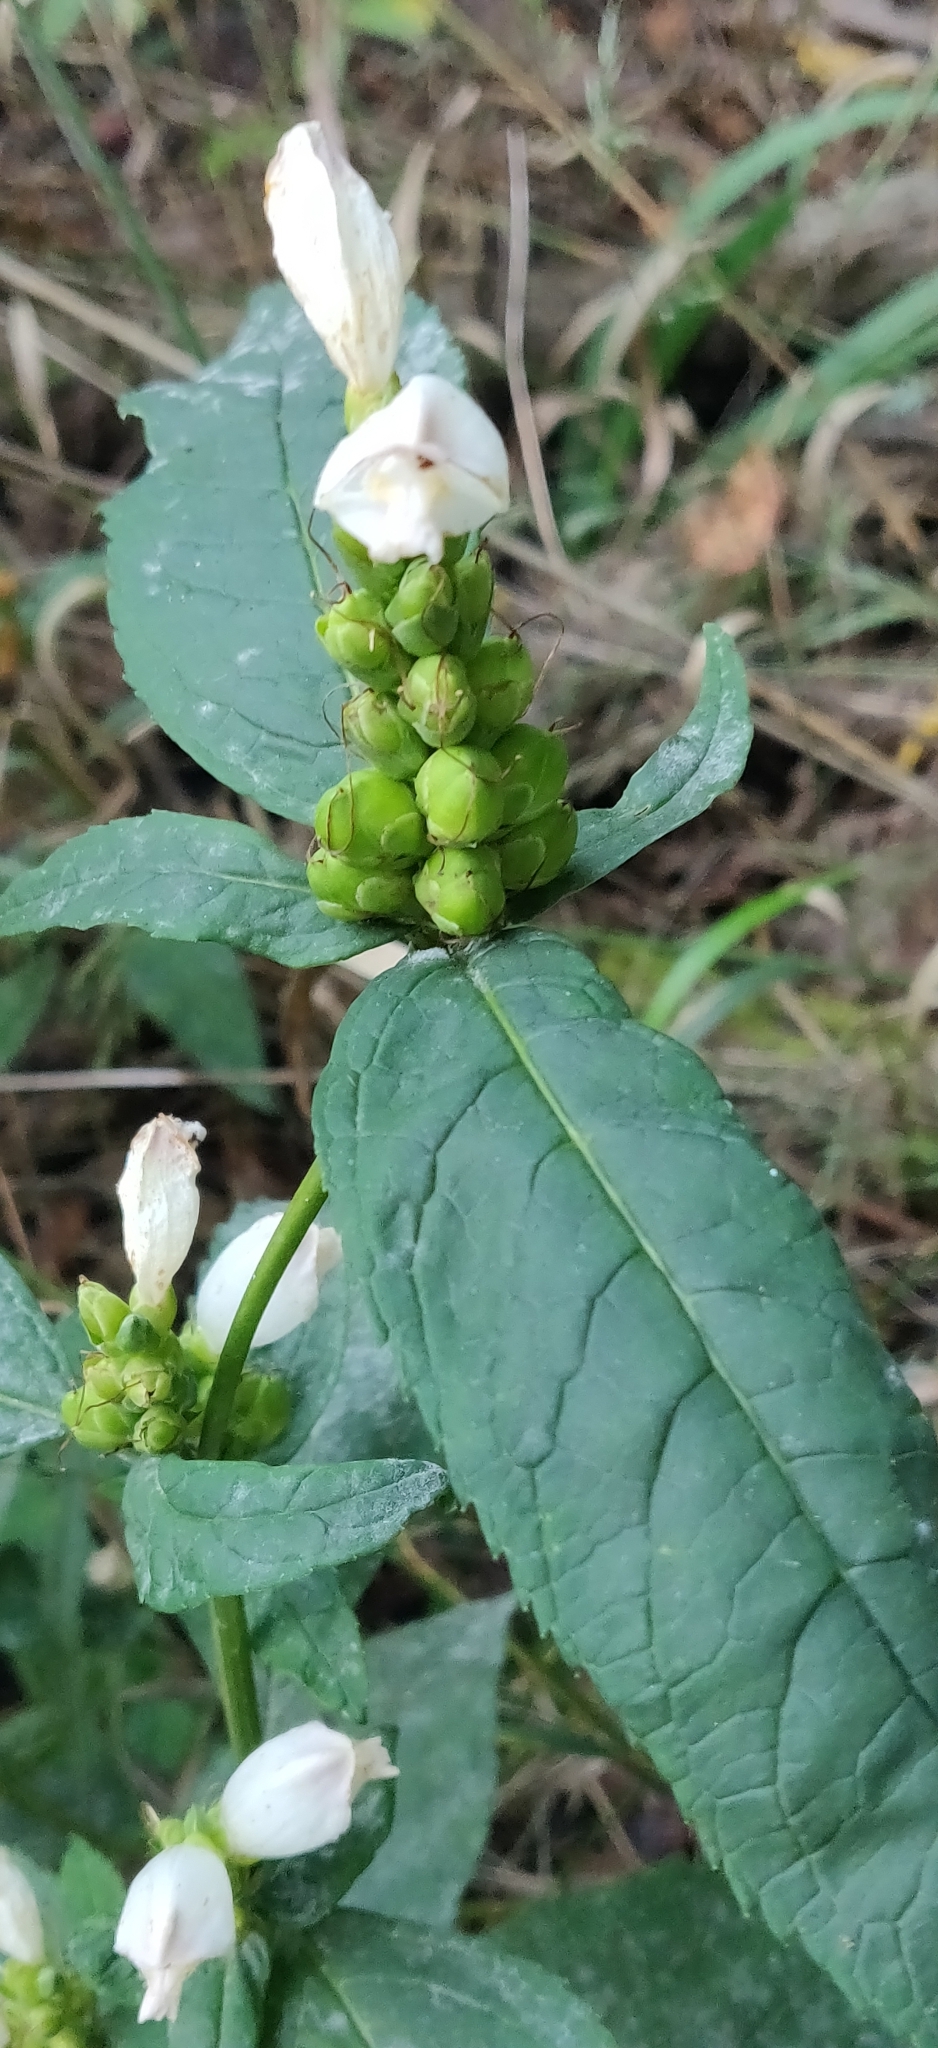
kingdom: Plantae
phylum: Tracheophyta
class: Magnoliopsida
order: Lamiales
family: Plantaginaceae
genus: Chelone
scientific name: Chelone glabra
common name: Snakehead
